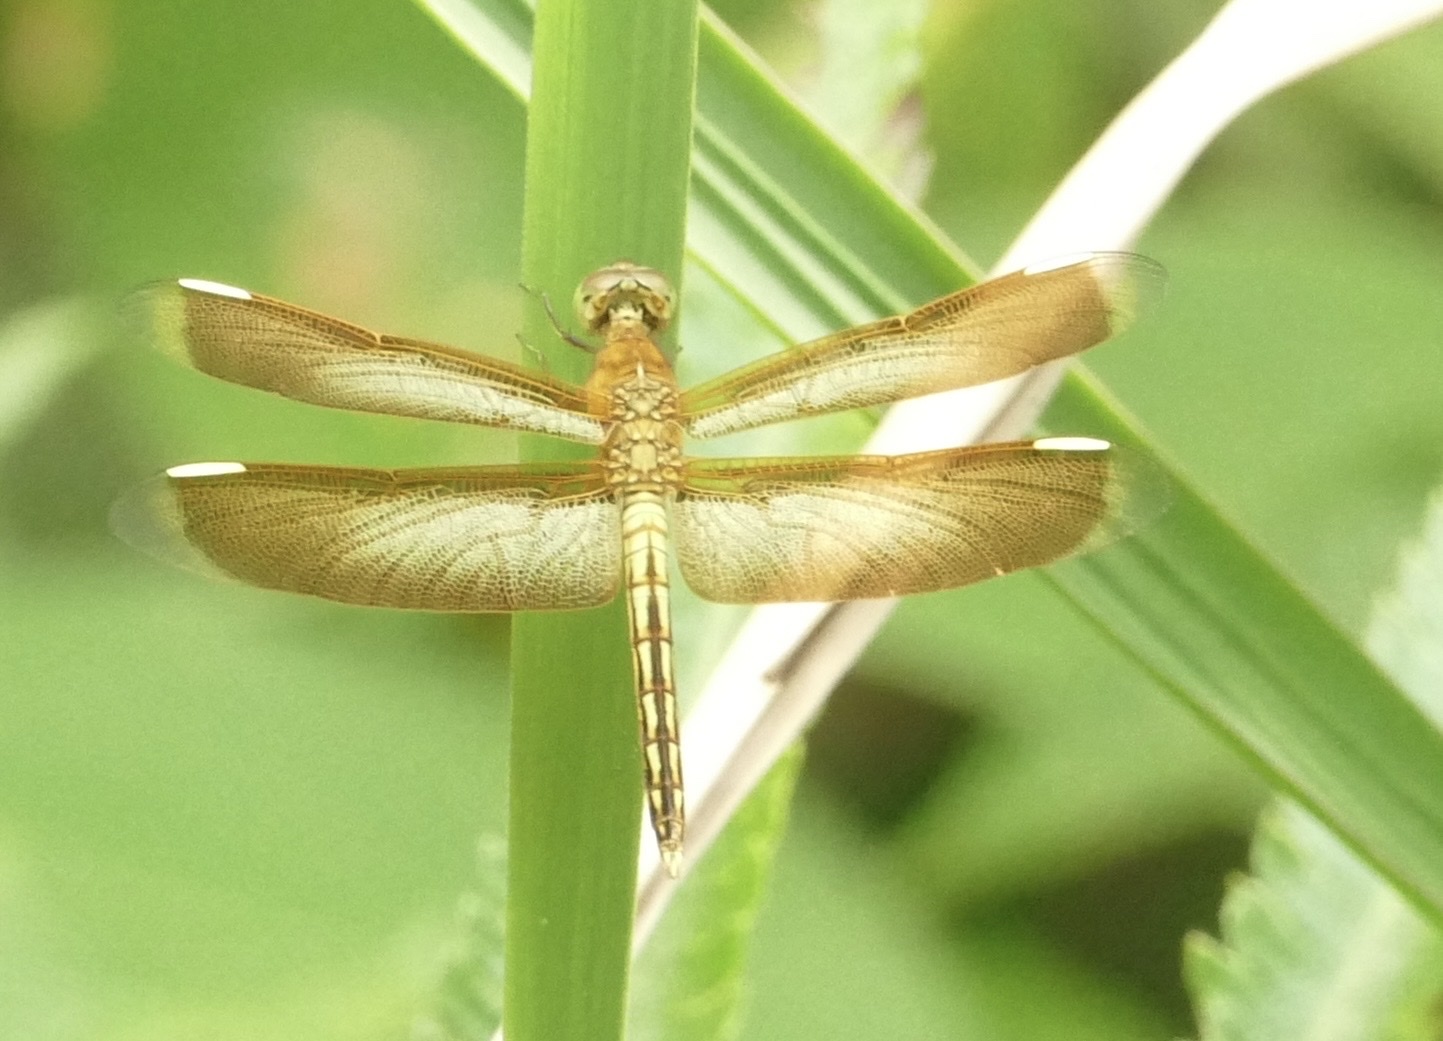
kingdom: Animalia
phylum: Arthropoda
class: Insecta
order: Odonata
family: Libellulidae
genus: Neurothemis
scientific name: Neurothemis stigmatizans
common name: Painted grasshawk
